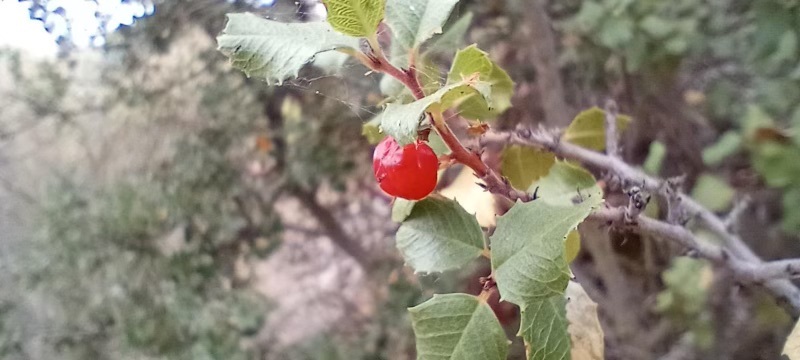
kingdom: Plantae
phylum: Tracheophyta
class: Magnoliopsida
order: Rosales
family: Rhamnaceae
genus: Endotropis
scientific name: Endotropis crocea
